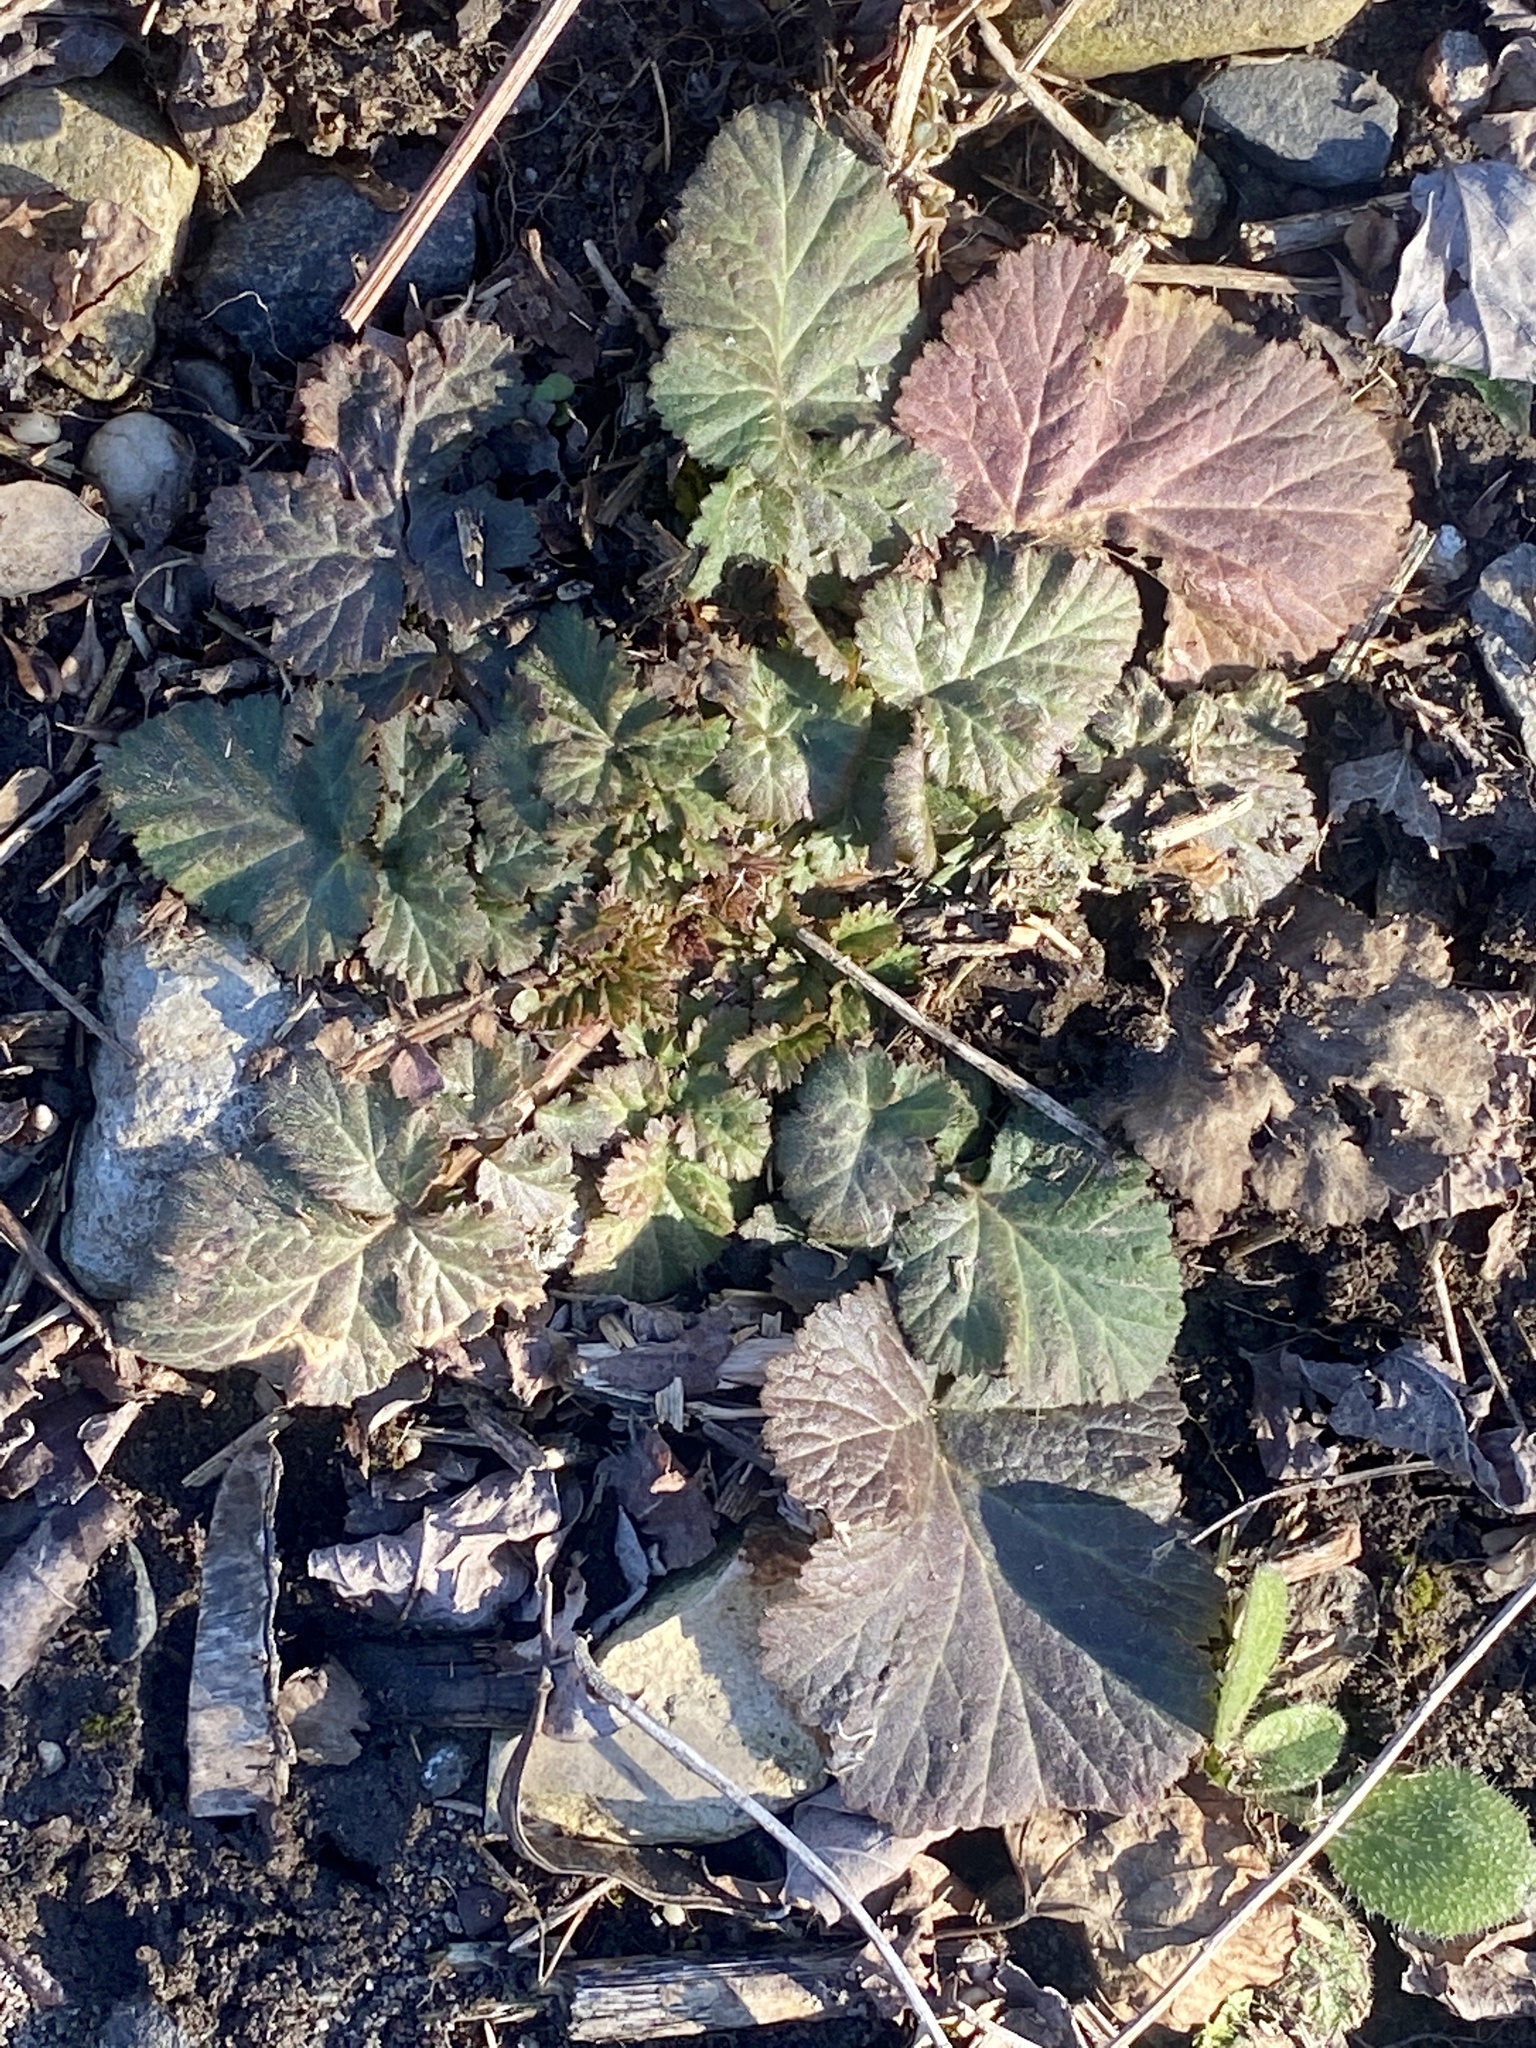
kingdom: Plantae
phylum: Tracheophyta
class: Magnoliopsida
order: Rosales
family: Rosaceae
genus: Geum
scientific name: Geum canadense
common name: White avens
